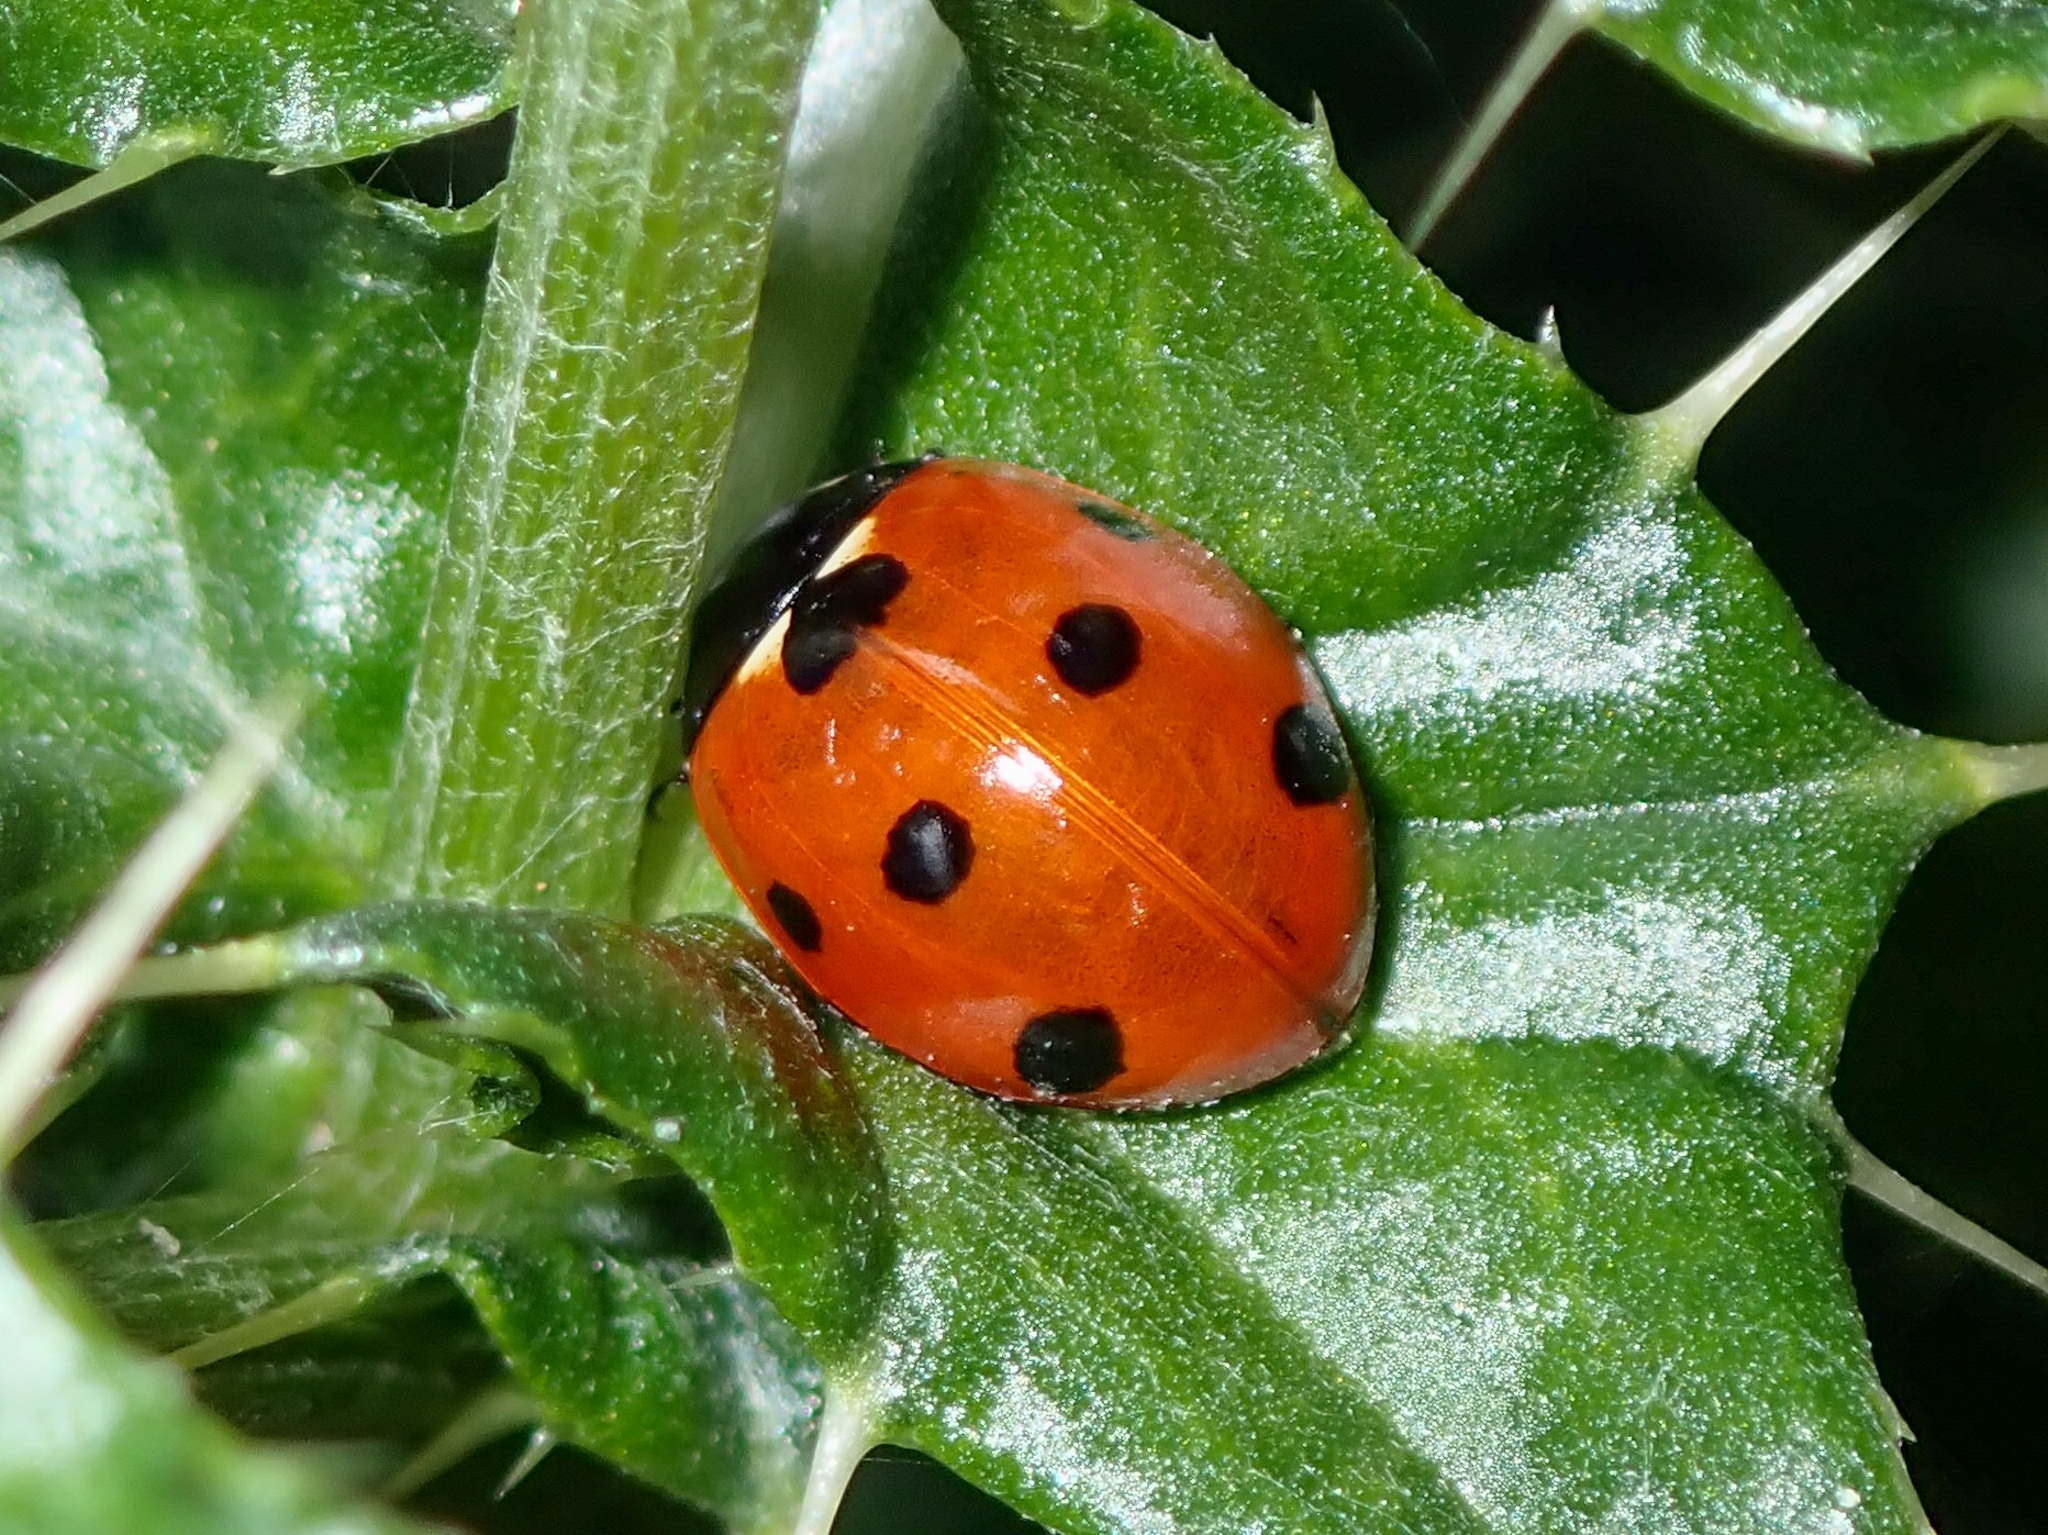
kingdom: Animalia
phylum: Arthropoda
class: Insecta
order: Coleoptera
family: Coccinellidae
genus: Coccinella
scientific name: Coccinella septempunctata
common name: Sevenspotted lady beetle
